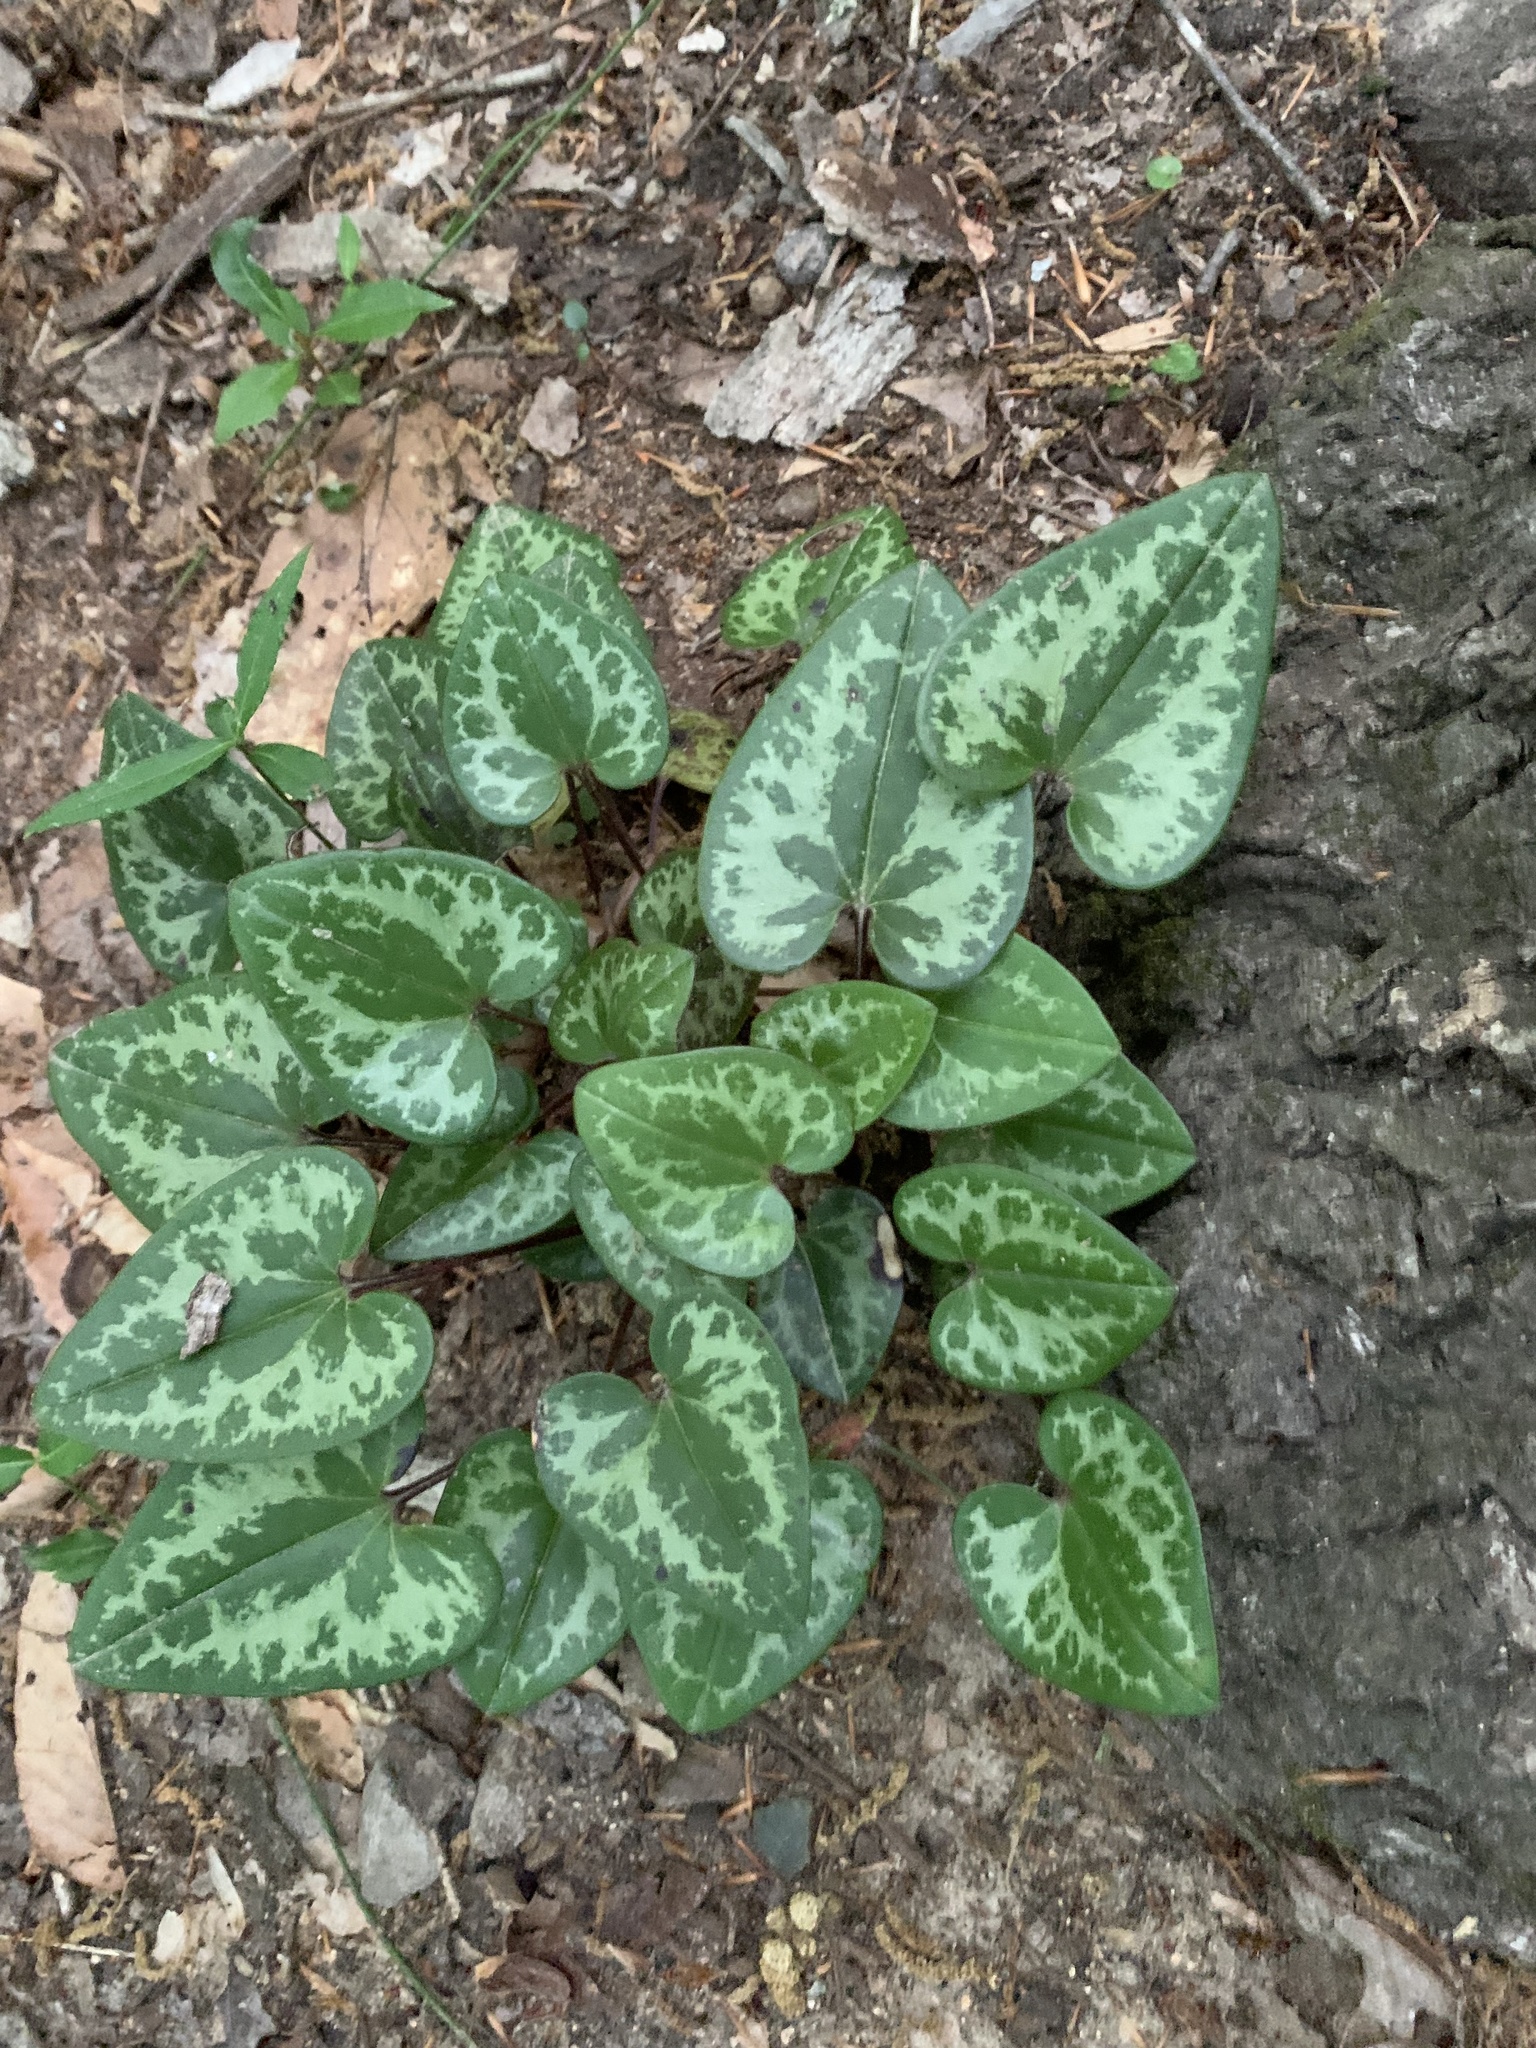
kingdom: Plantae
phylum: Tracheophyta
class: Magnoliopsida
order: Piperales
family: Aristolochiaceae
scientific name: Aristolochiaceae
